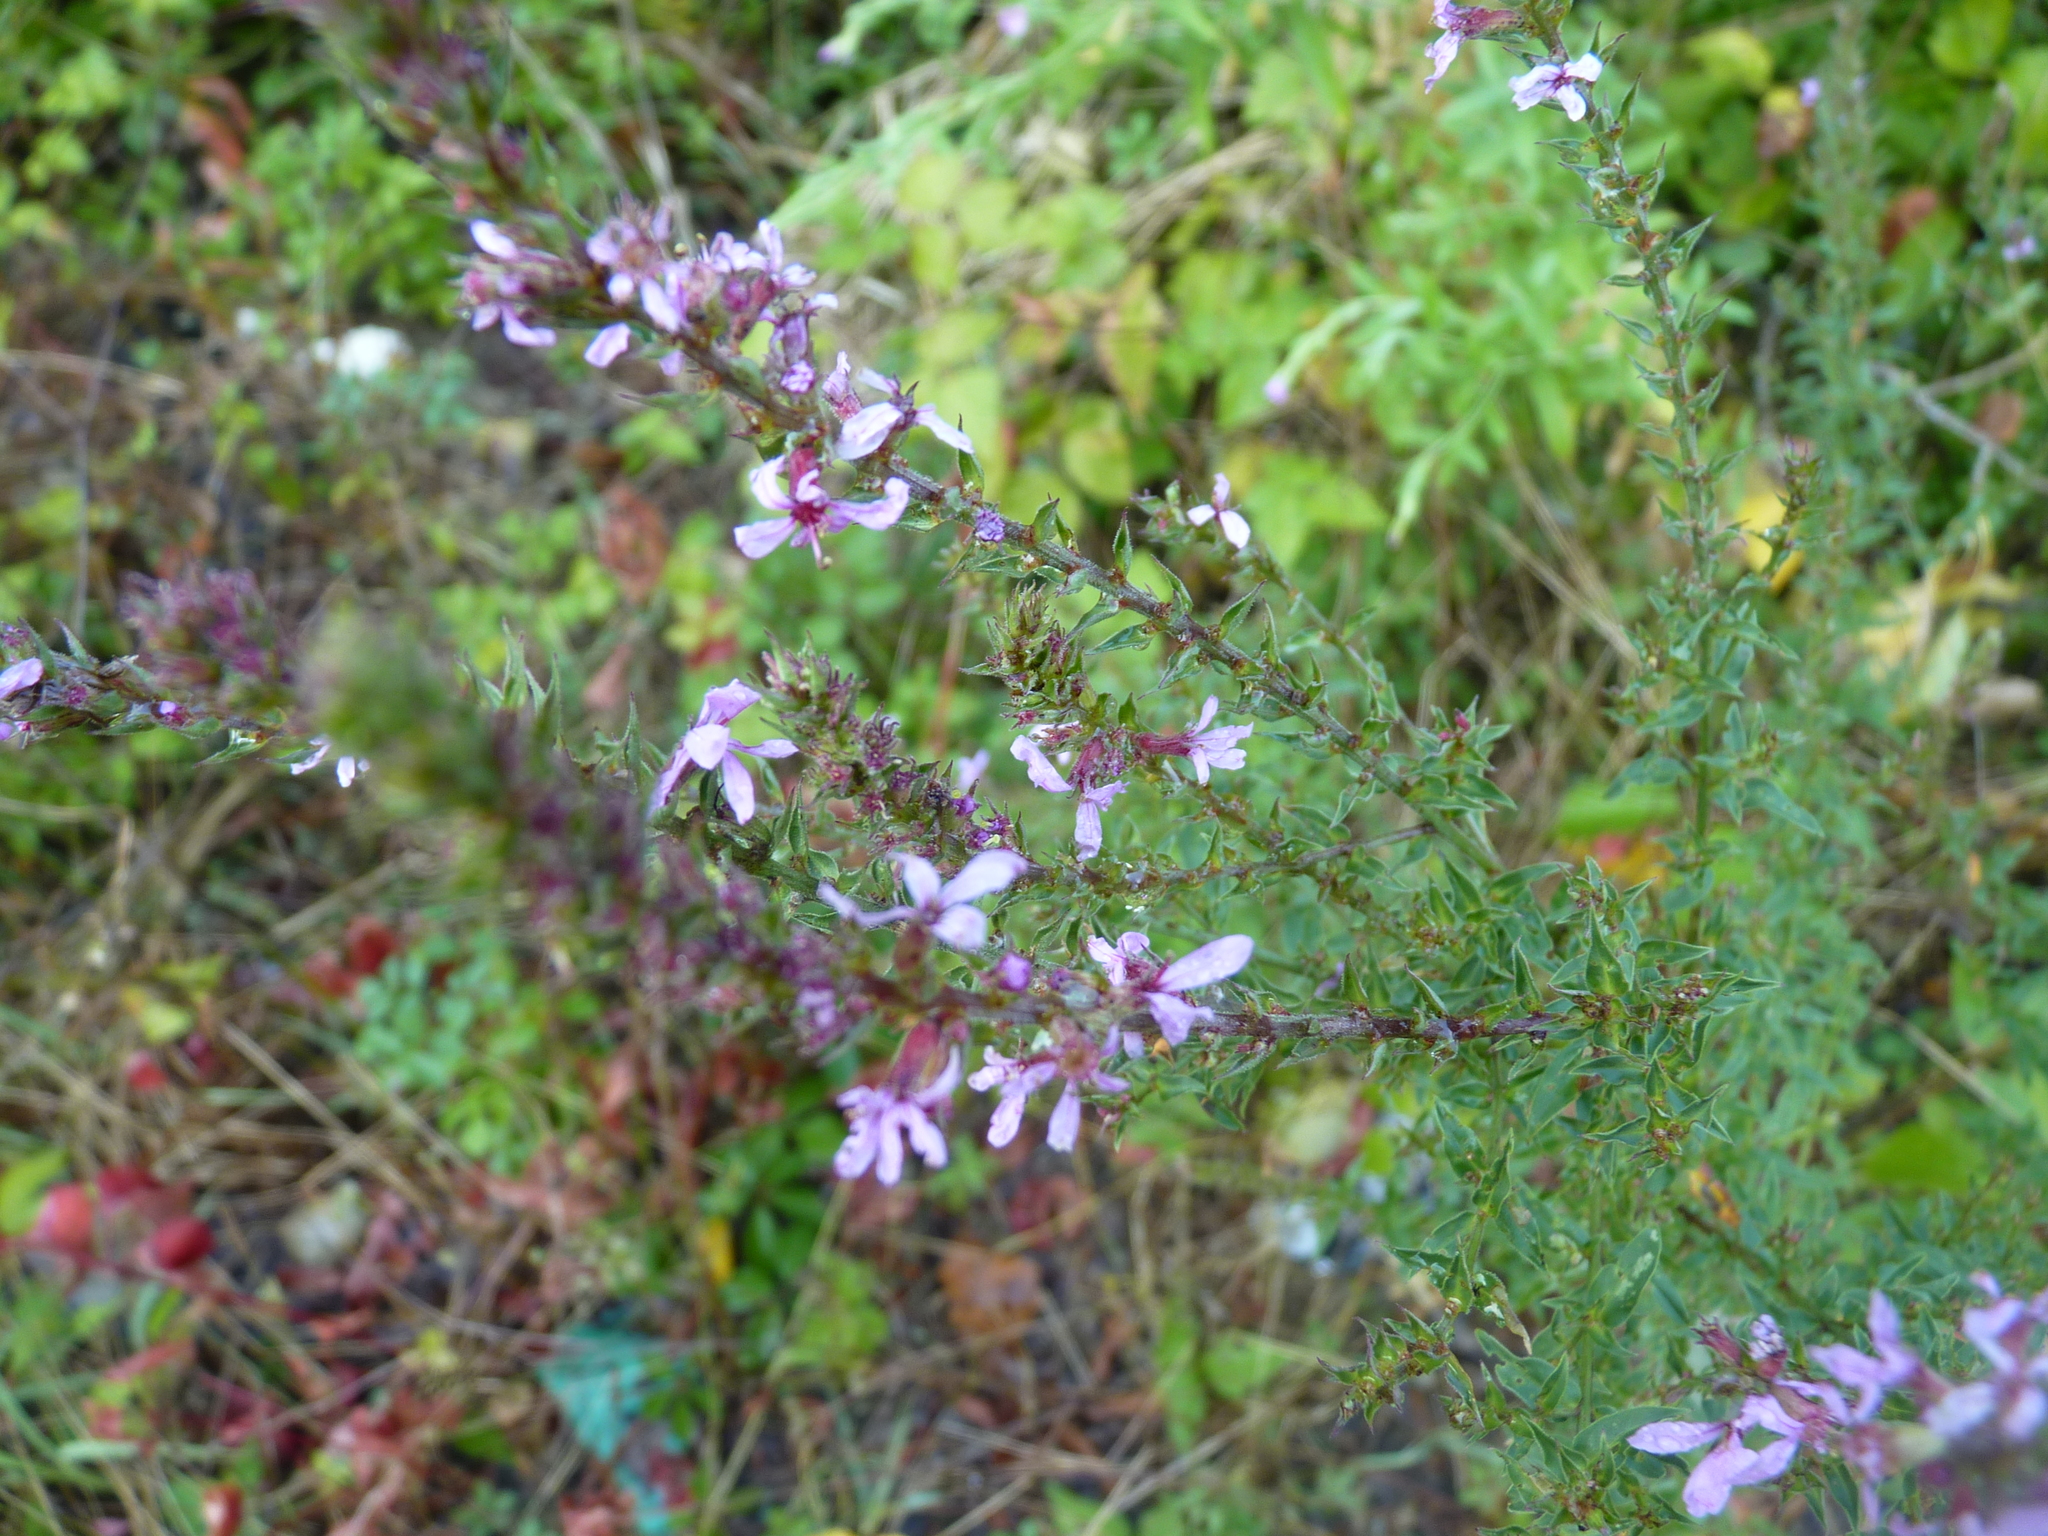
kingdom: Plantae
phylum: Tracheophyta
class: Magnoliopsida
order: Myrtales
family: Lythraceae
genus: Lythrum
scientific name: Lythrum salicaria
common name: Purple loosestrife
